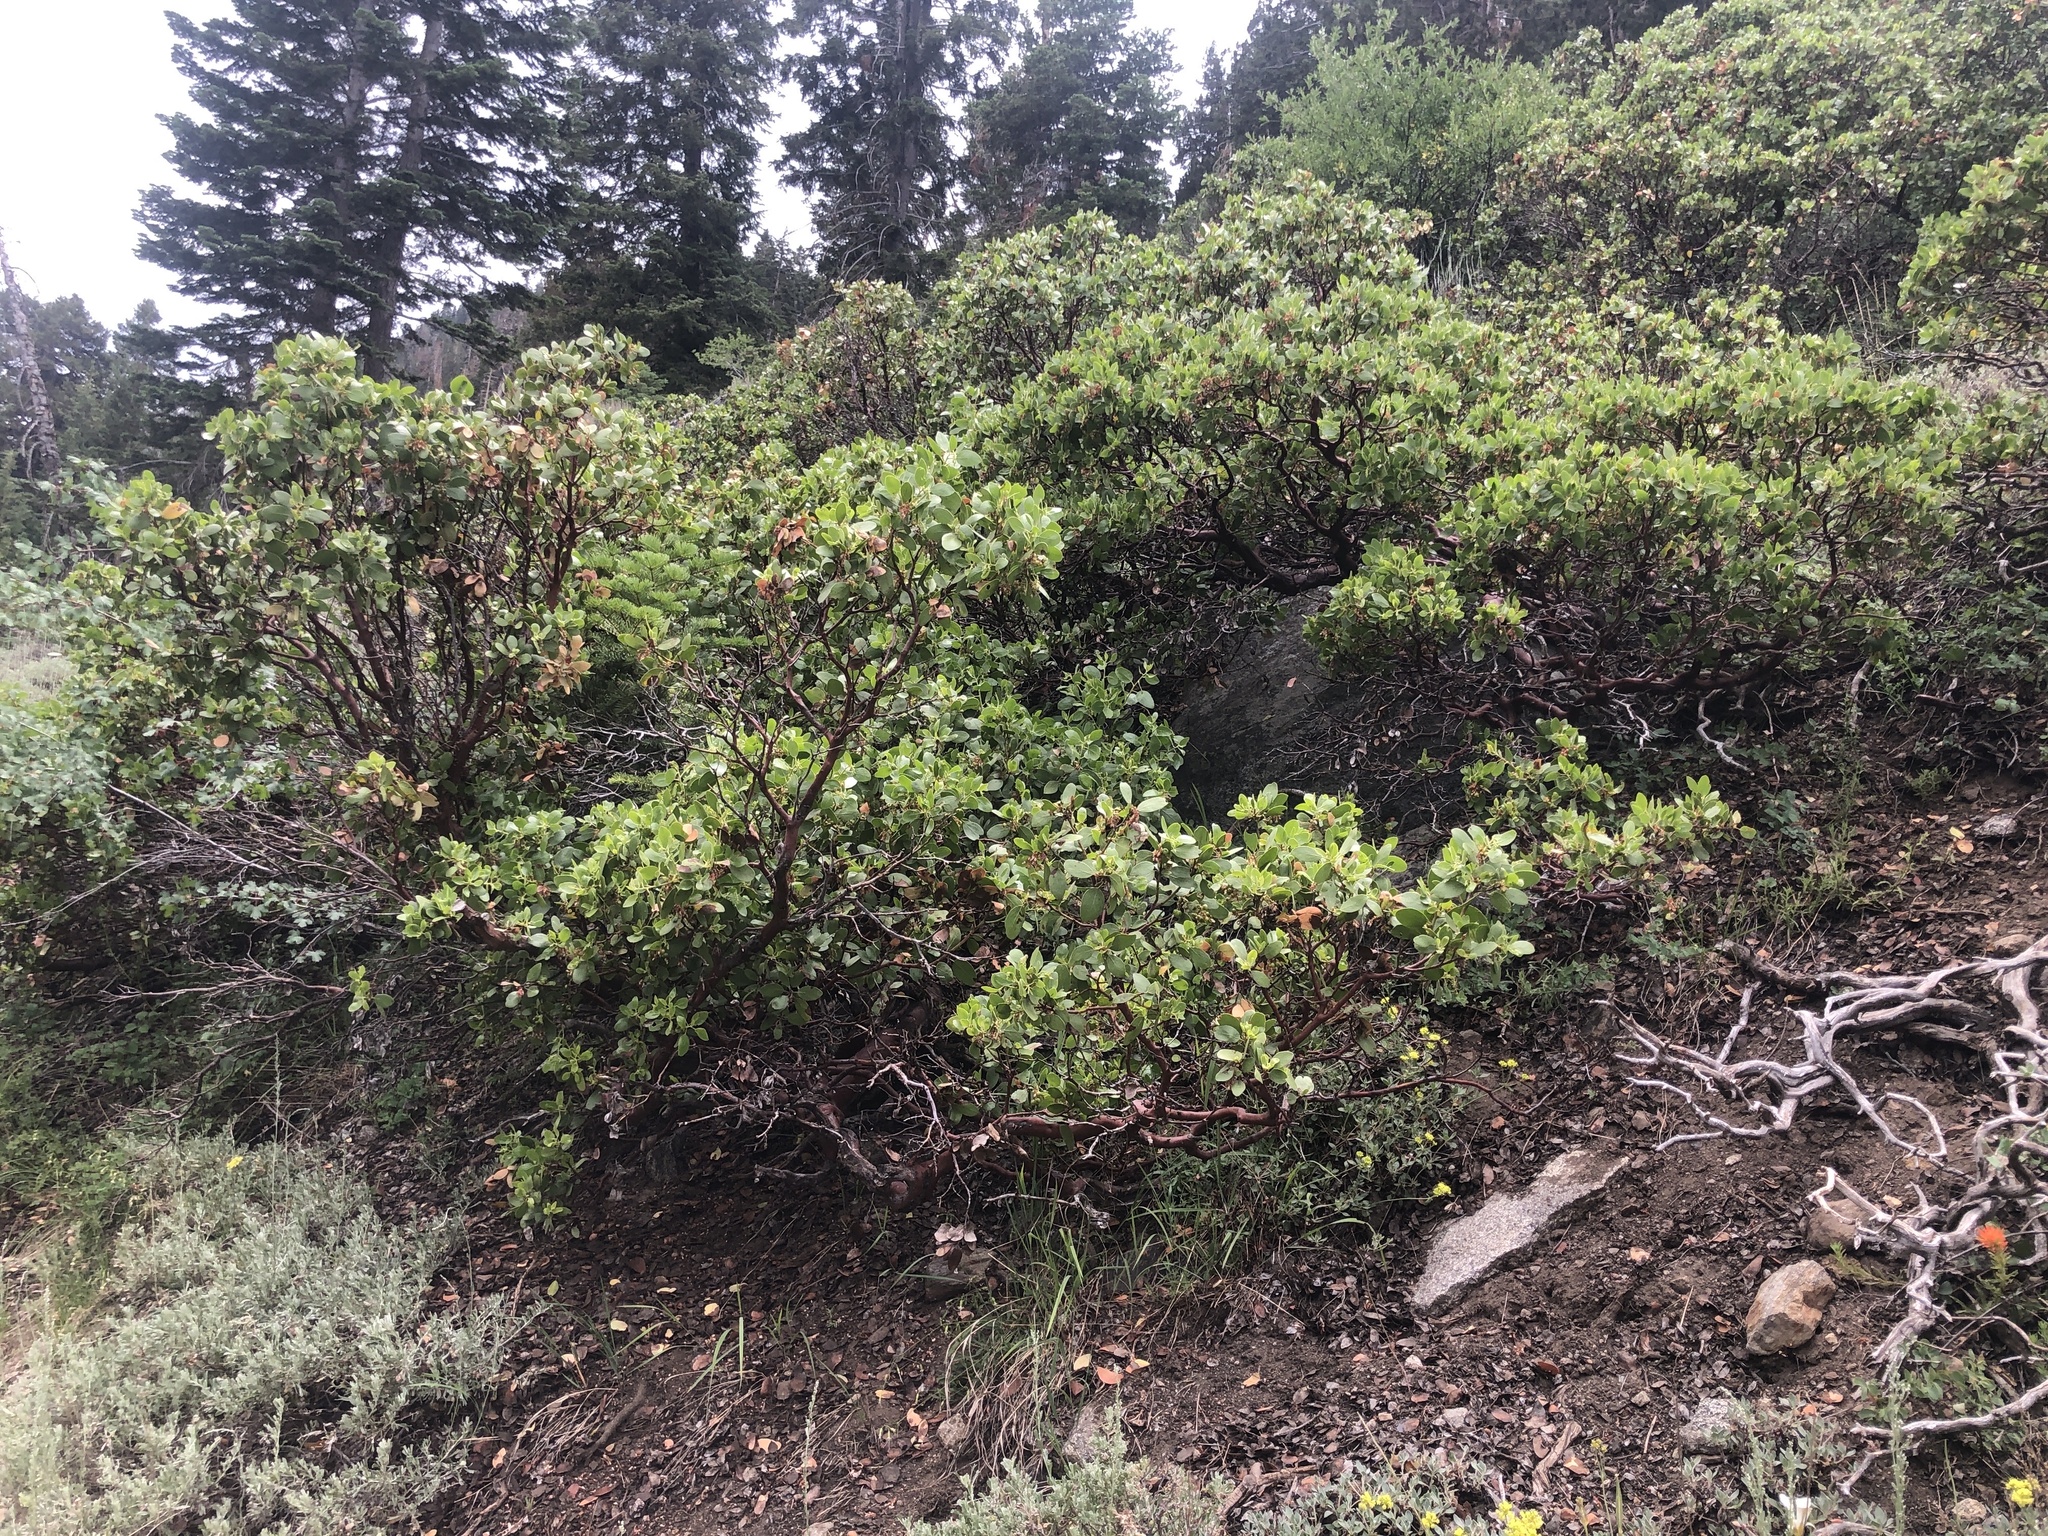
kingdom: Plantae
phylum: Tracheophyta
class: Magnoliopsida
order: Ericales
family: Ericaceae
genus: Arctostaphylos
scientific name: Arctostaphylos patula
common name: Green-leaf manzanita
